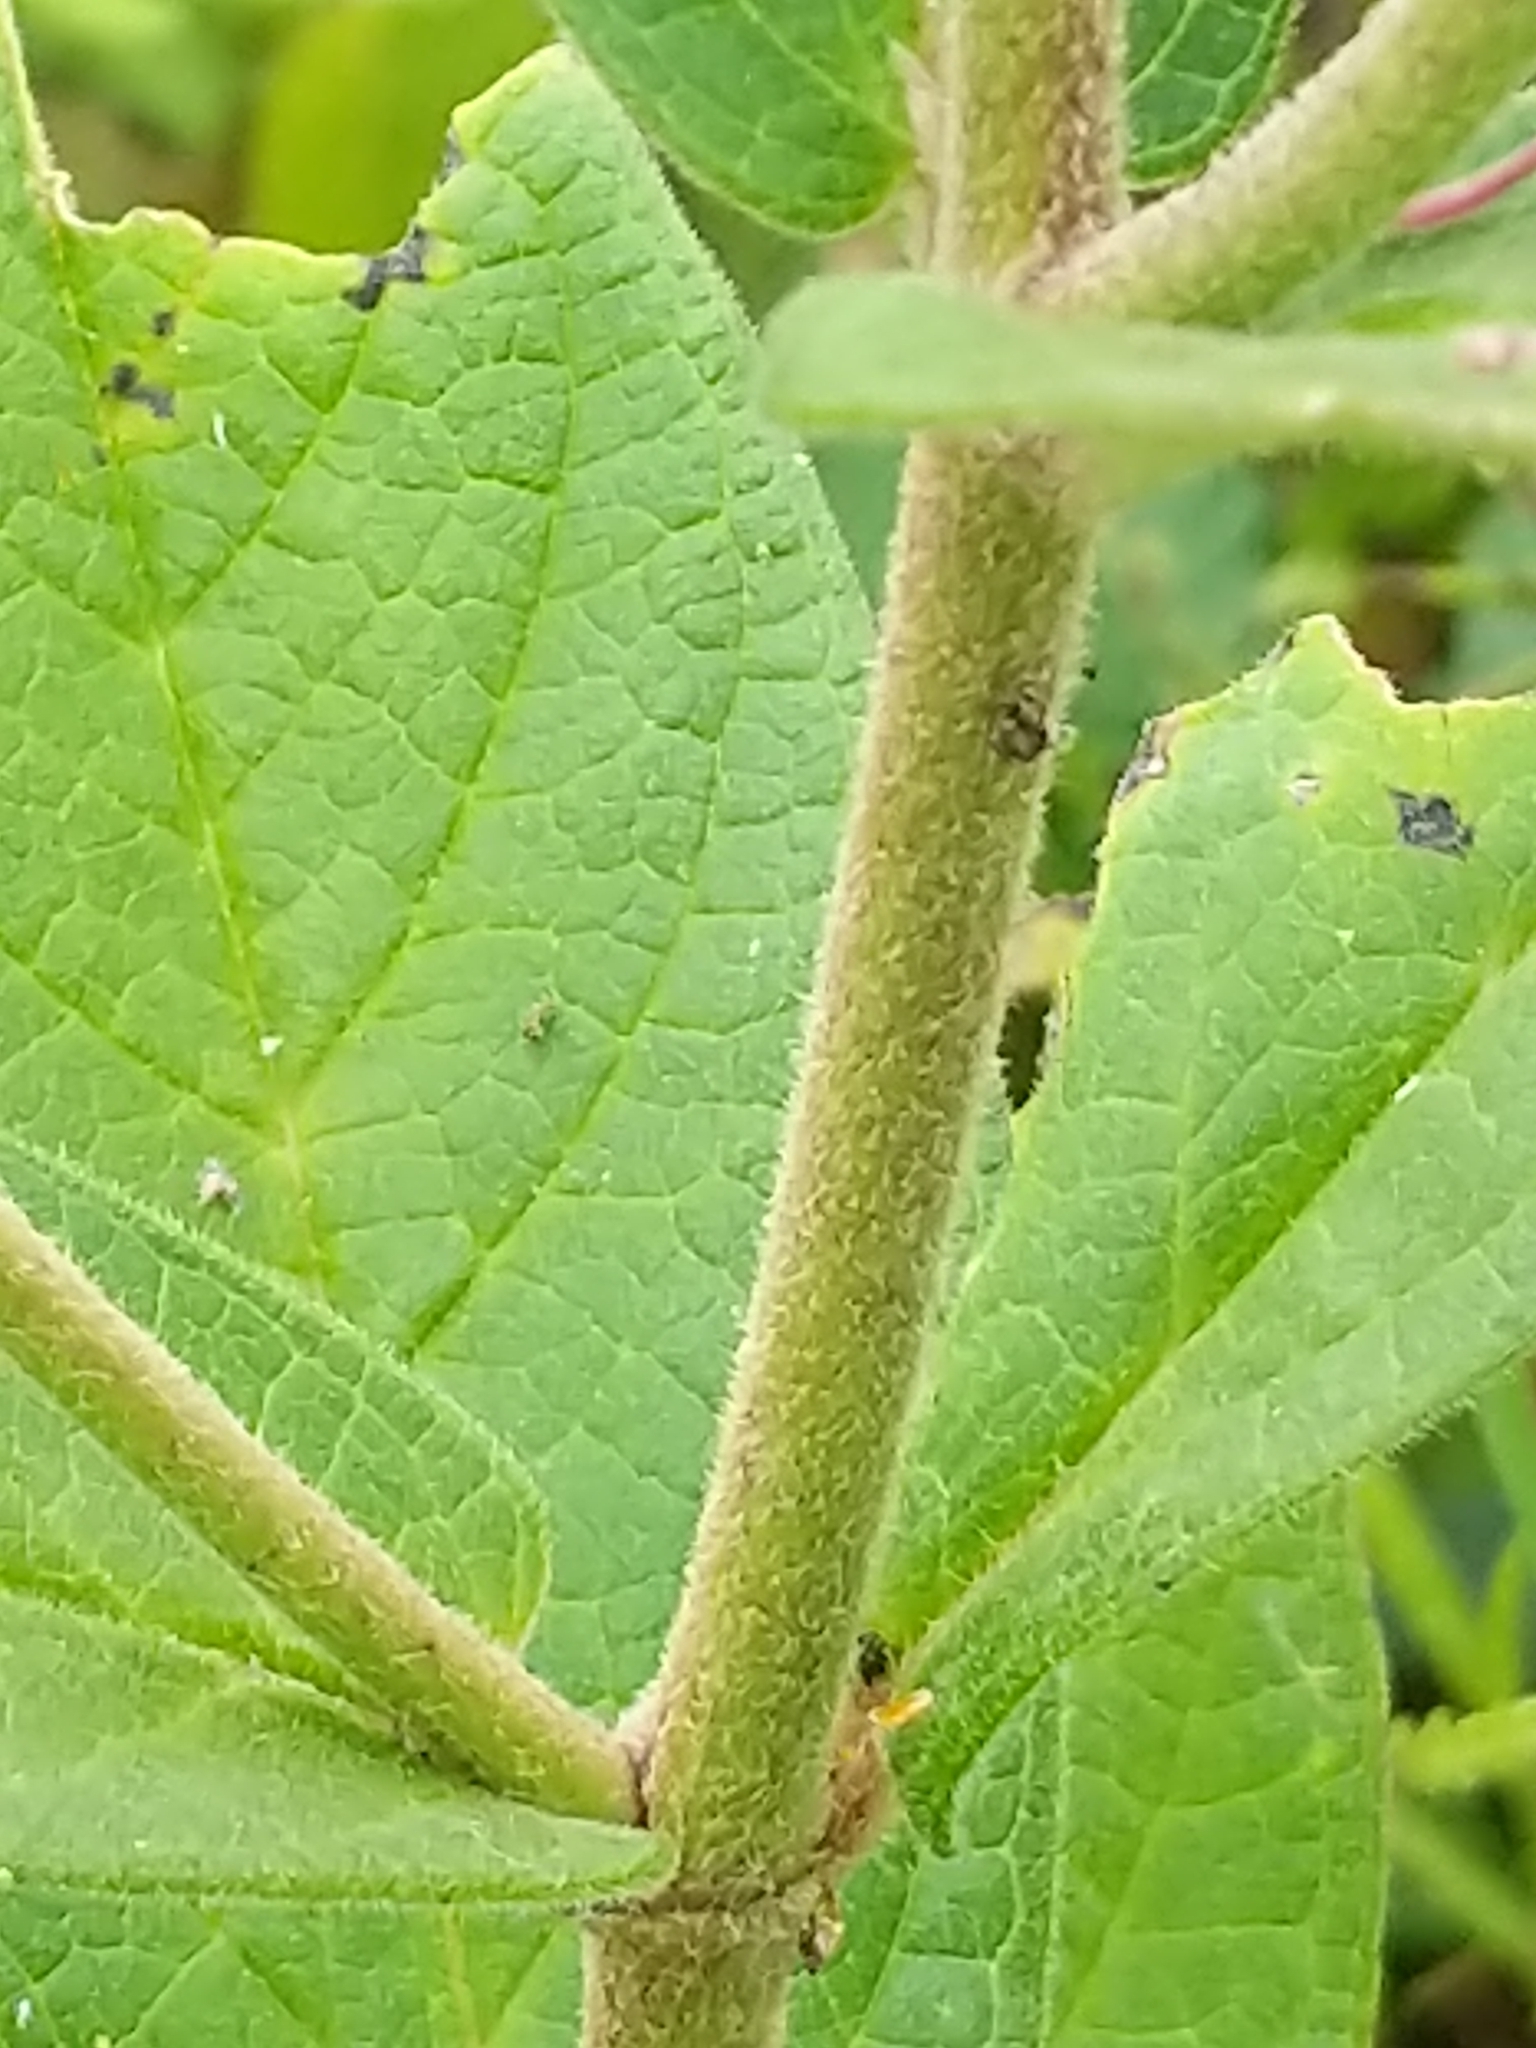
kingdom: Plantae
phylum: Tracheophyta
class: Magnoliopsida
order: Gentianales
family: Apocynaceae
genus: Asclepias
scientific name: Asclepias incarnata
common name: Swamp milkweed
